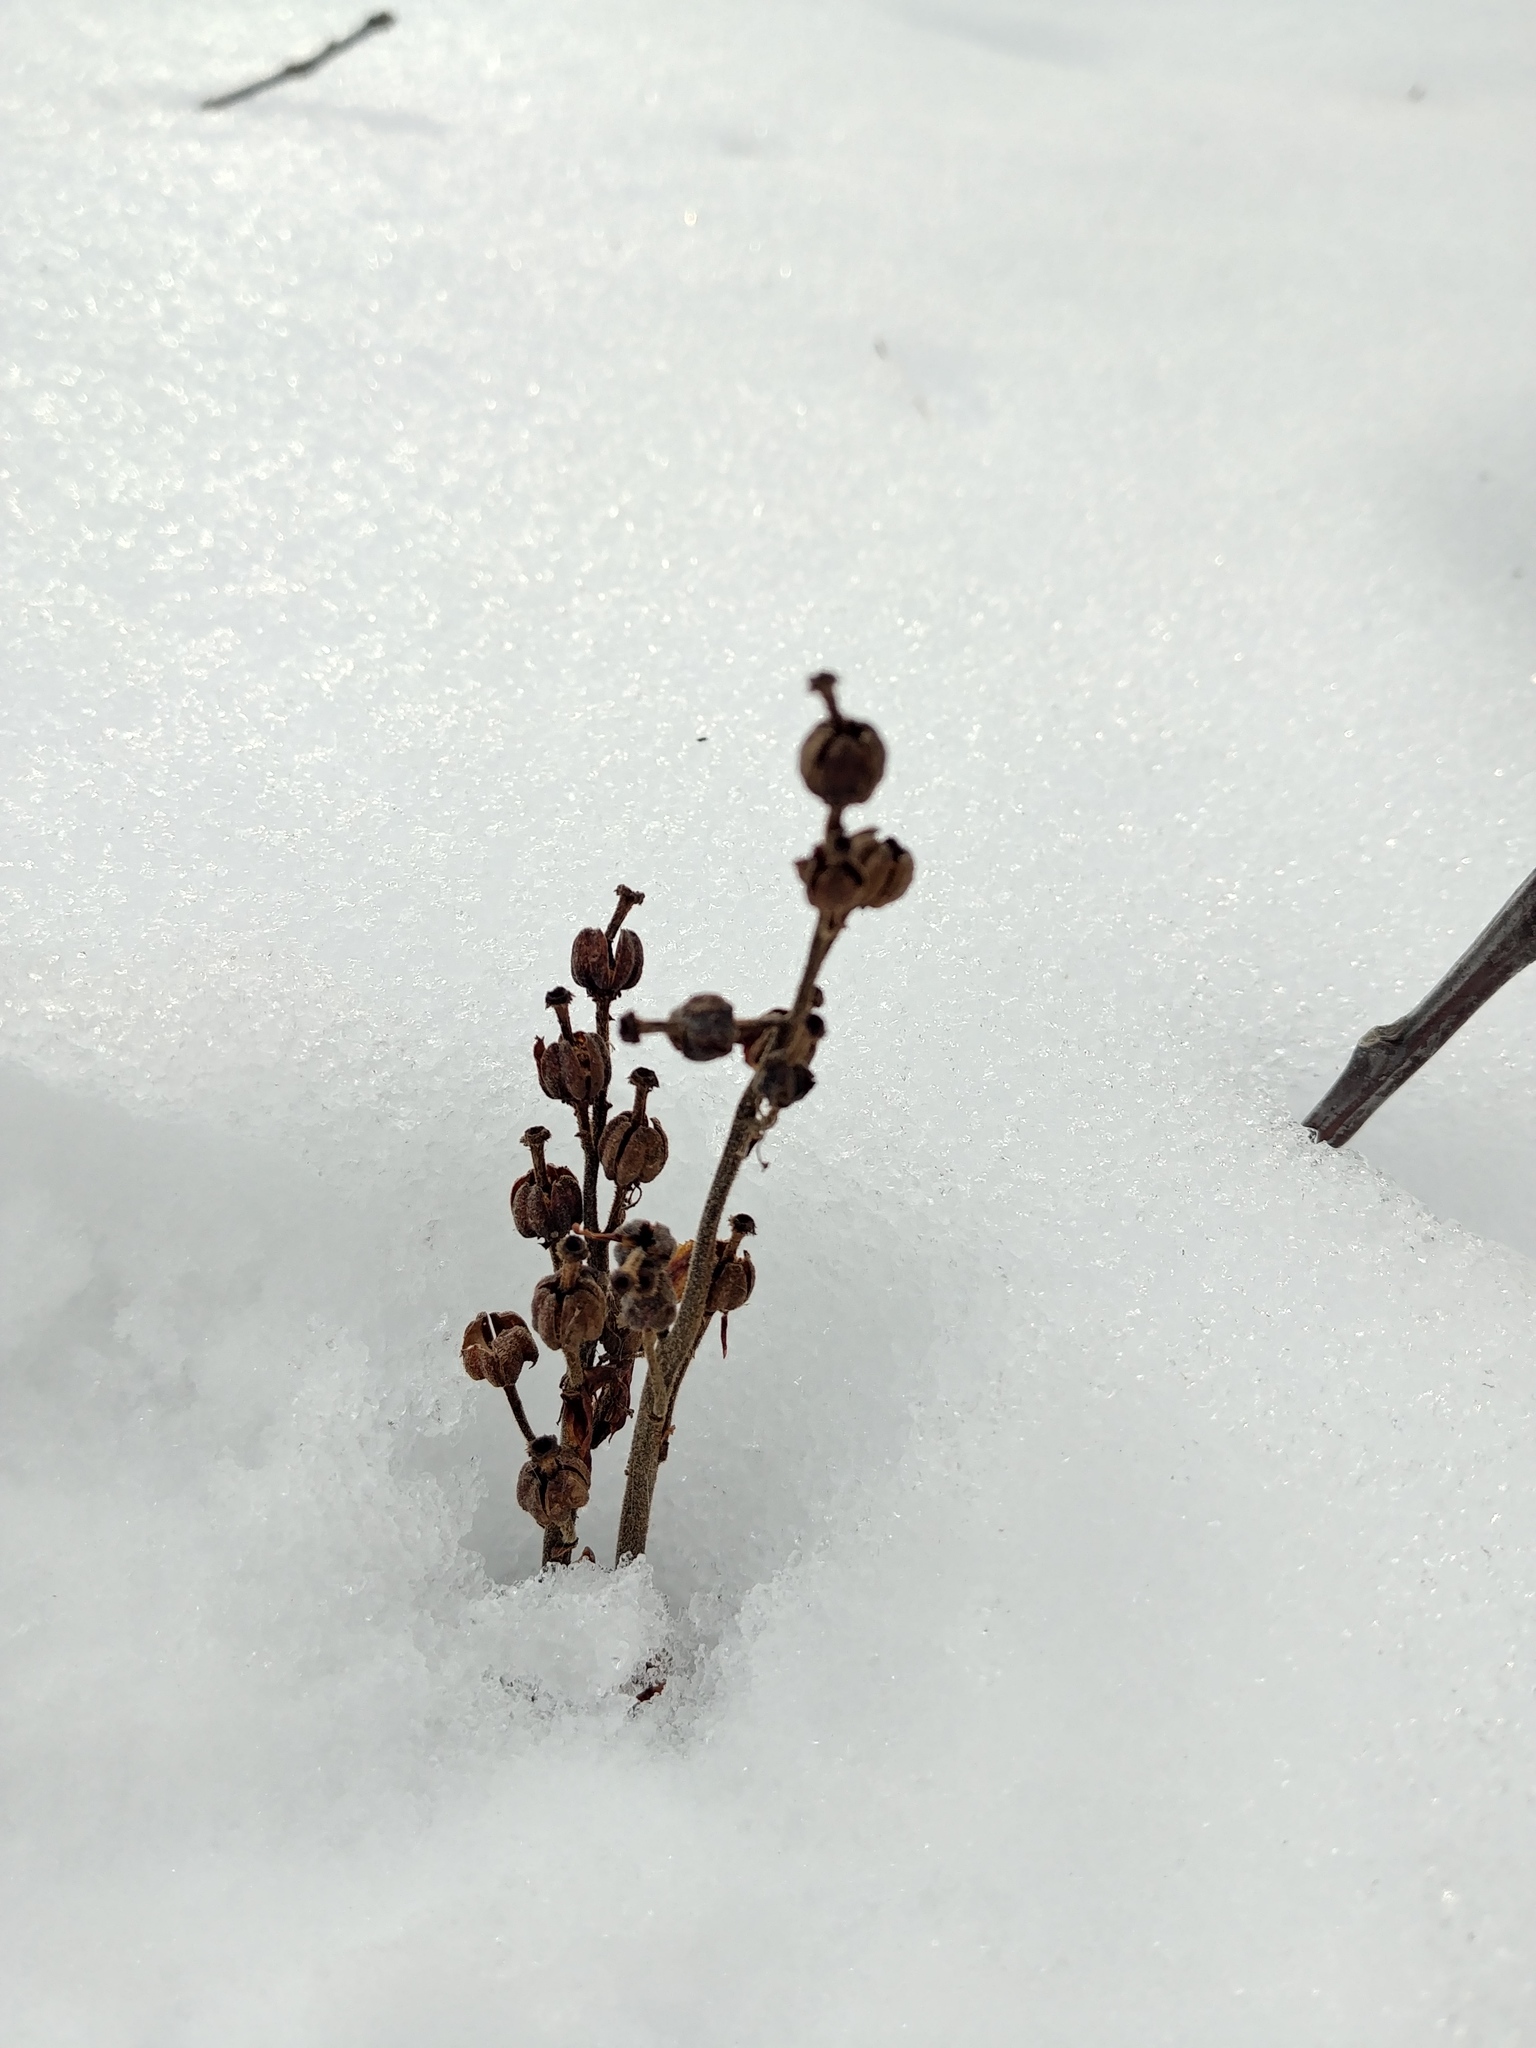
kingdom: Plantae
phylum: Tracheophyta
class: Magnoliopsida
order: Ericales
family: Ericaceae
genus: Hypopitys
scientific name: Hypopitys monotropa
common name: Yellow bird's-nest
